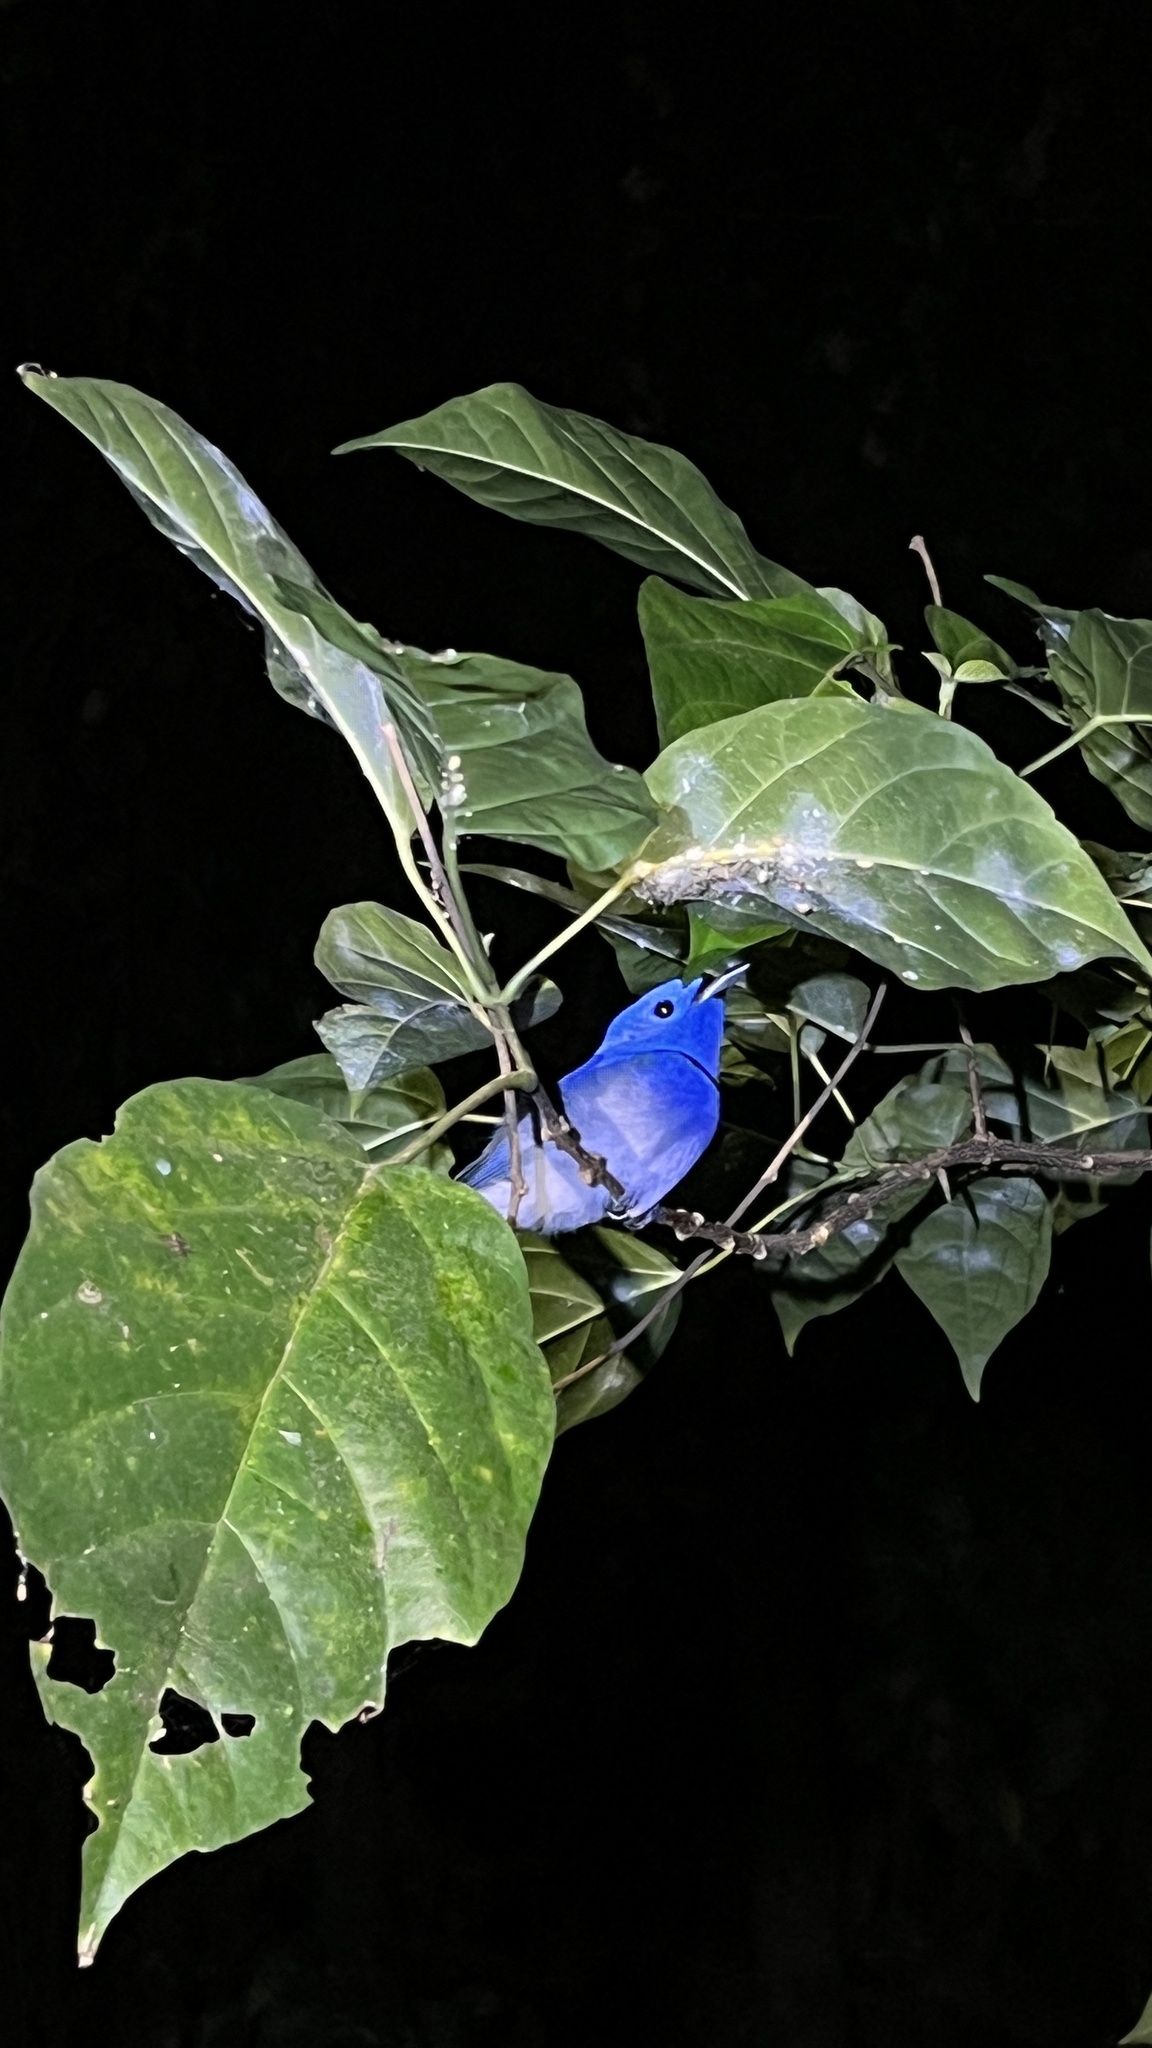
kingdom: Animalia
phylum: Chordata
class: Aves
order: Passeriformes
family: Monarchidae
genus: Hypothymis
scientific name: Hypothymis azurea
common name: Black-naped monarch
